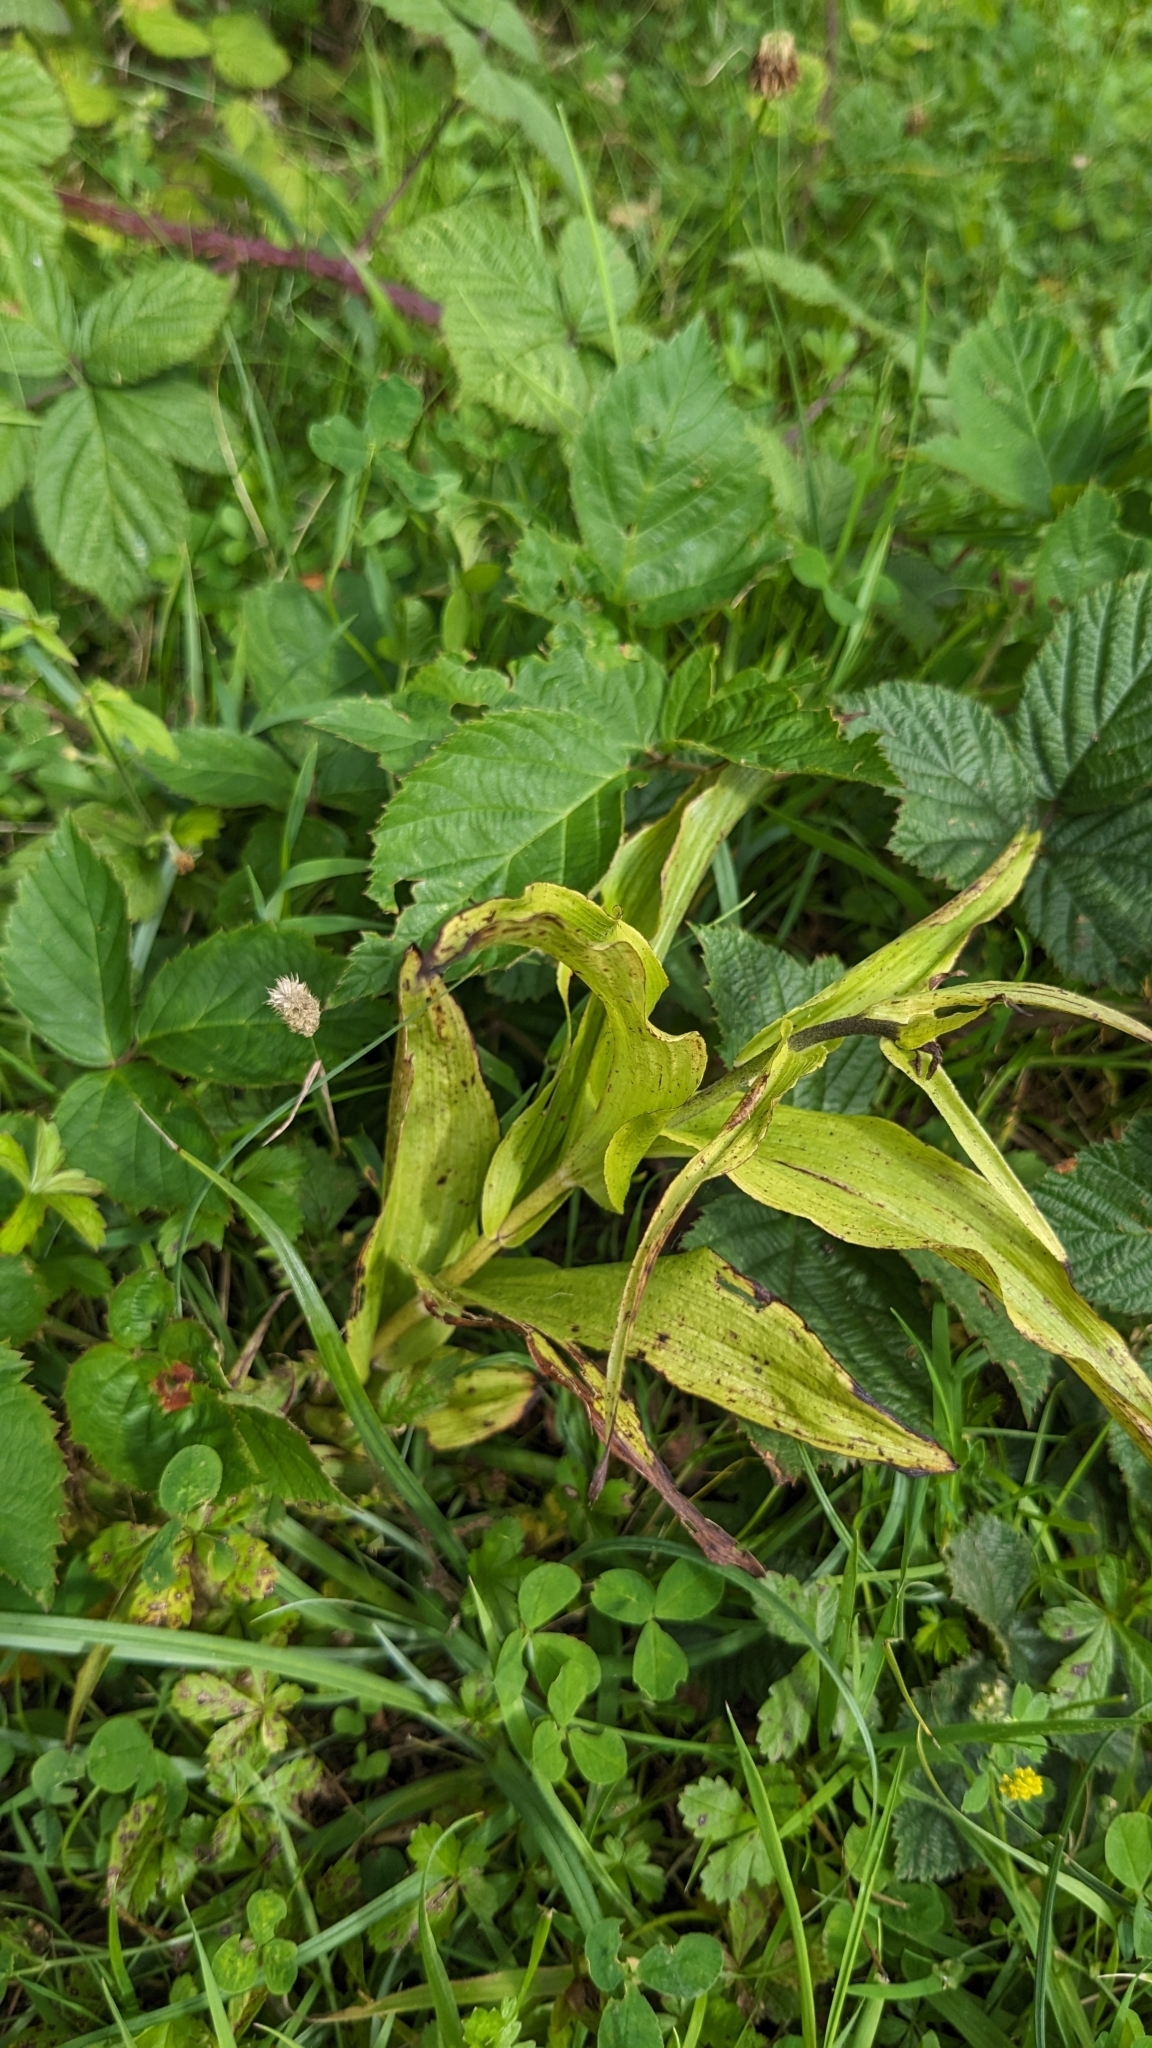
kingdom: Plantae
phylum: Tracheophyta
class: Liliopsida
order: Asparagales
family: Orchidaceae
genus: Epipactis
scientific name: Epipactis helleborine
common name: Broad-leaved helleborine
